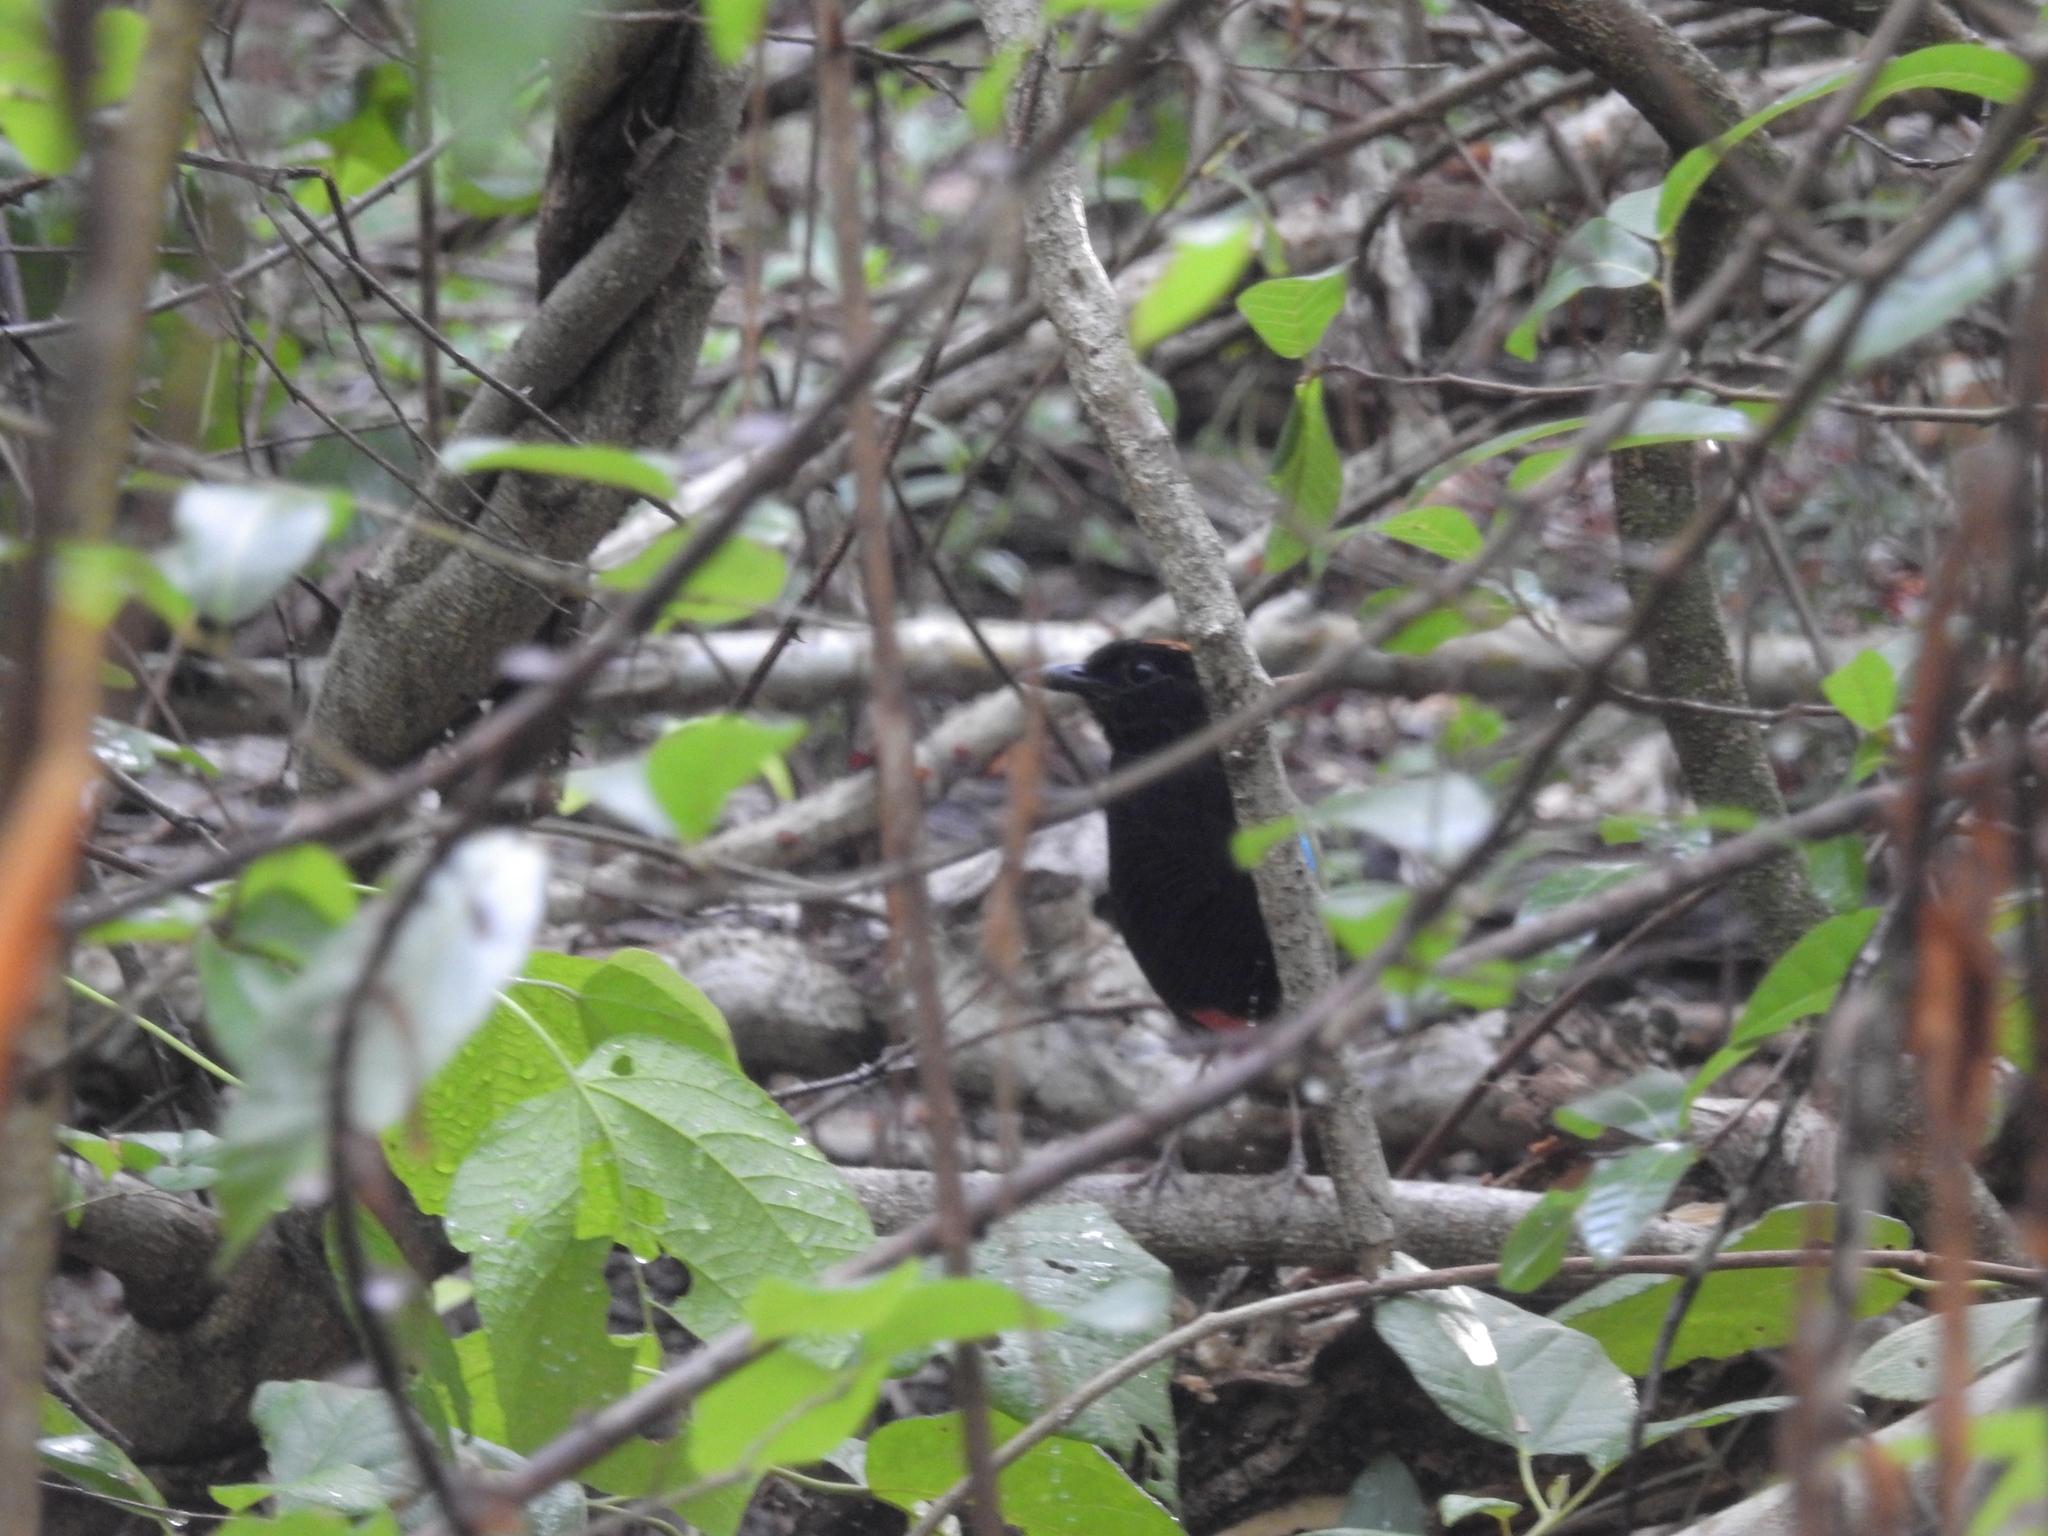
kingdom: Animalia
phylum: Chordata
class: Aves
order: Passeriformes
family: Pittidae
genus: Pitta
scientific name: Pitta iris
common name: Rainbow pitta
